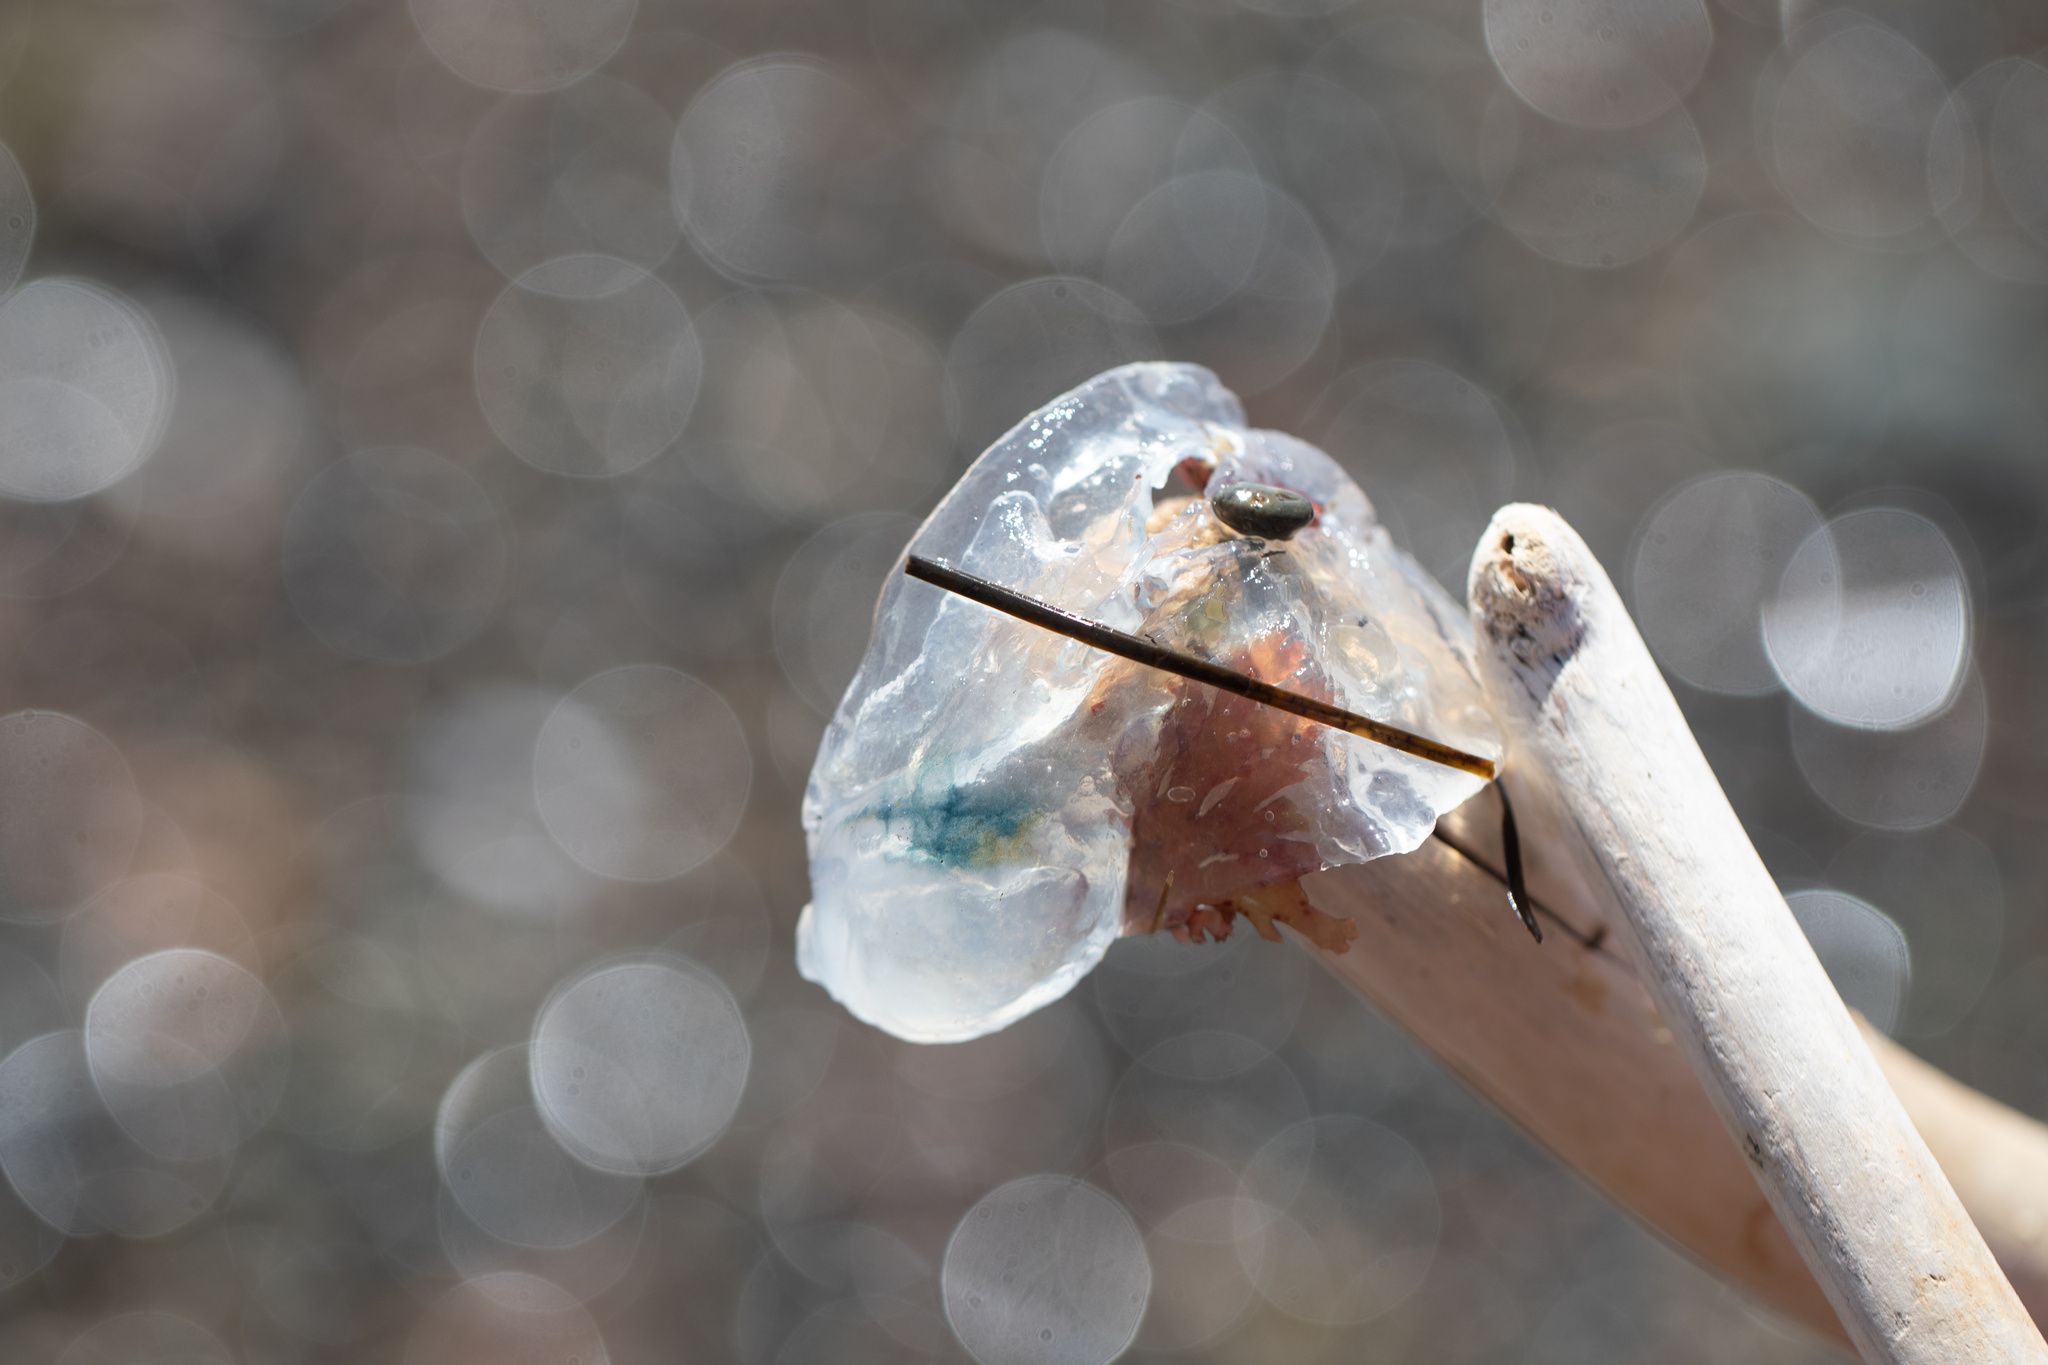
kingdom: Animalia
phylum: Chordata
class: Thaliacea
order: Salpida
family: Salpidae
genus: Thetys
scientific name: Thetys vagina
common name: Vagina salp
